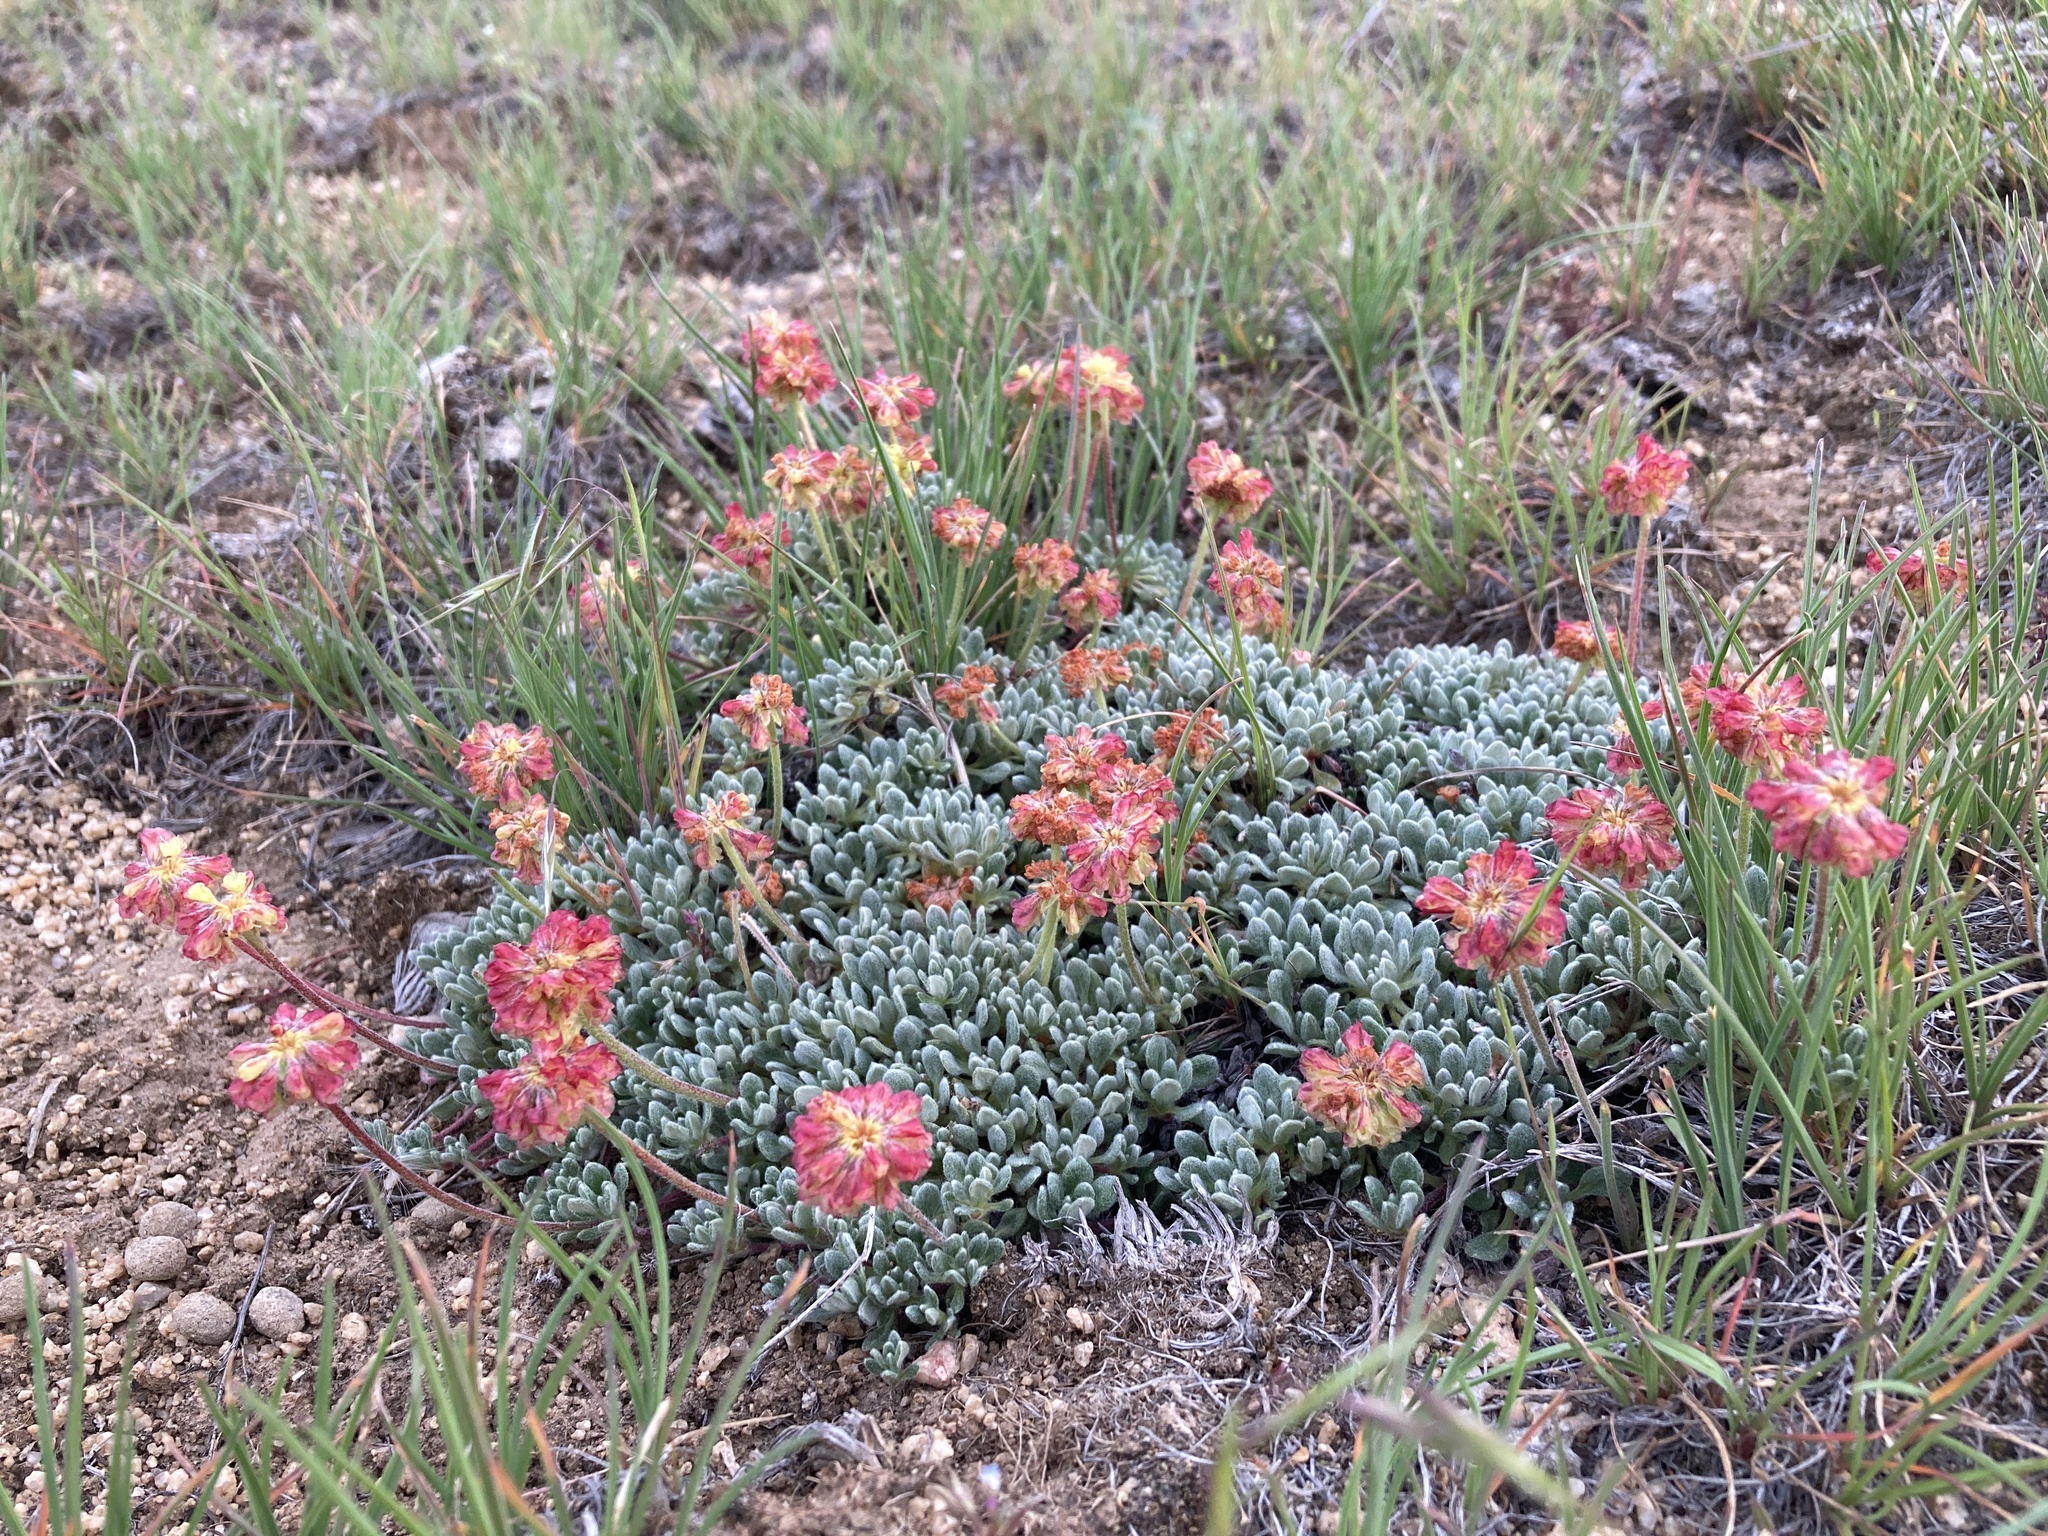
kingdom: Plantae
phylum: Tracheophyta
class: Magnoliopsida
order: Caryophyllales
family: Polygonaceae
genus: Eriogonum
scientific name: Eriogonum caespitosum
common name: Matted wild buckwheat
